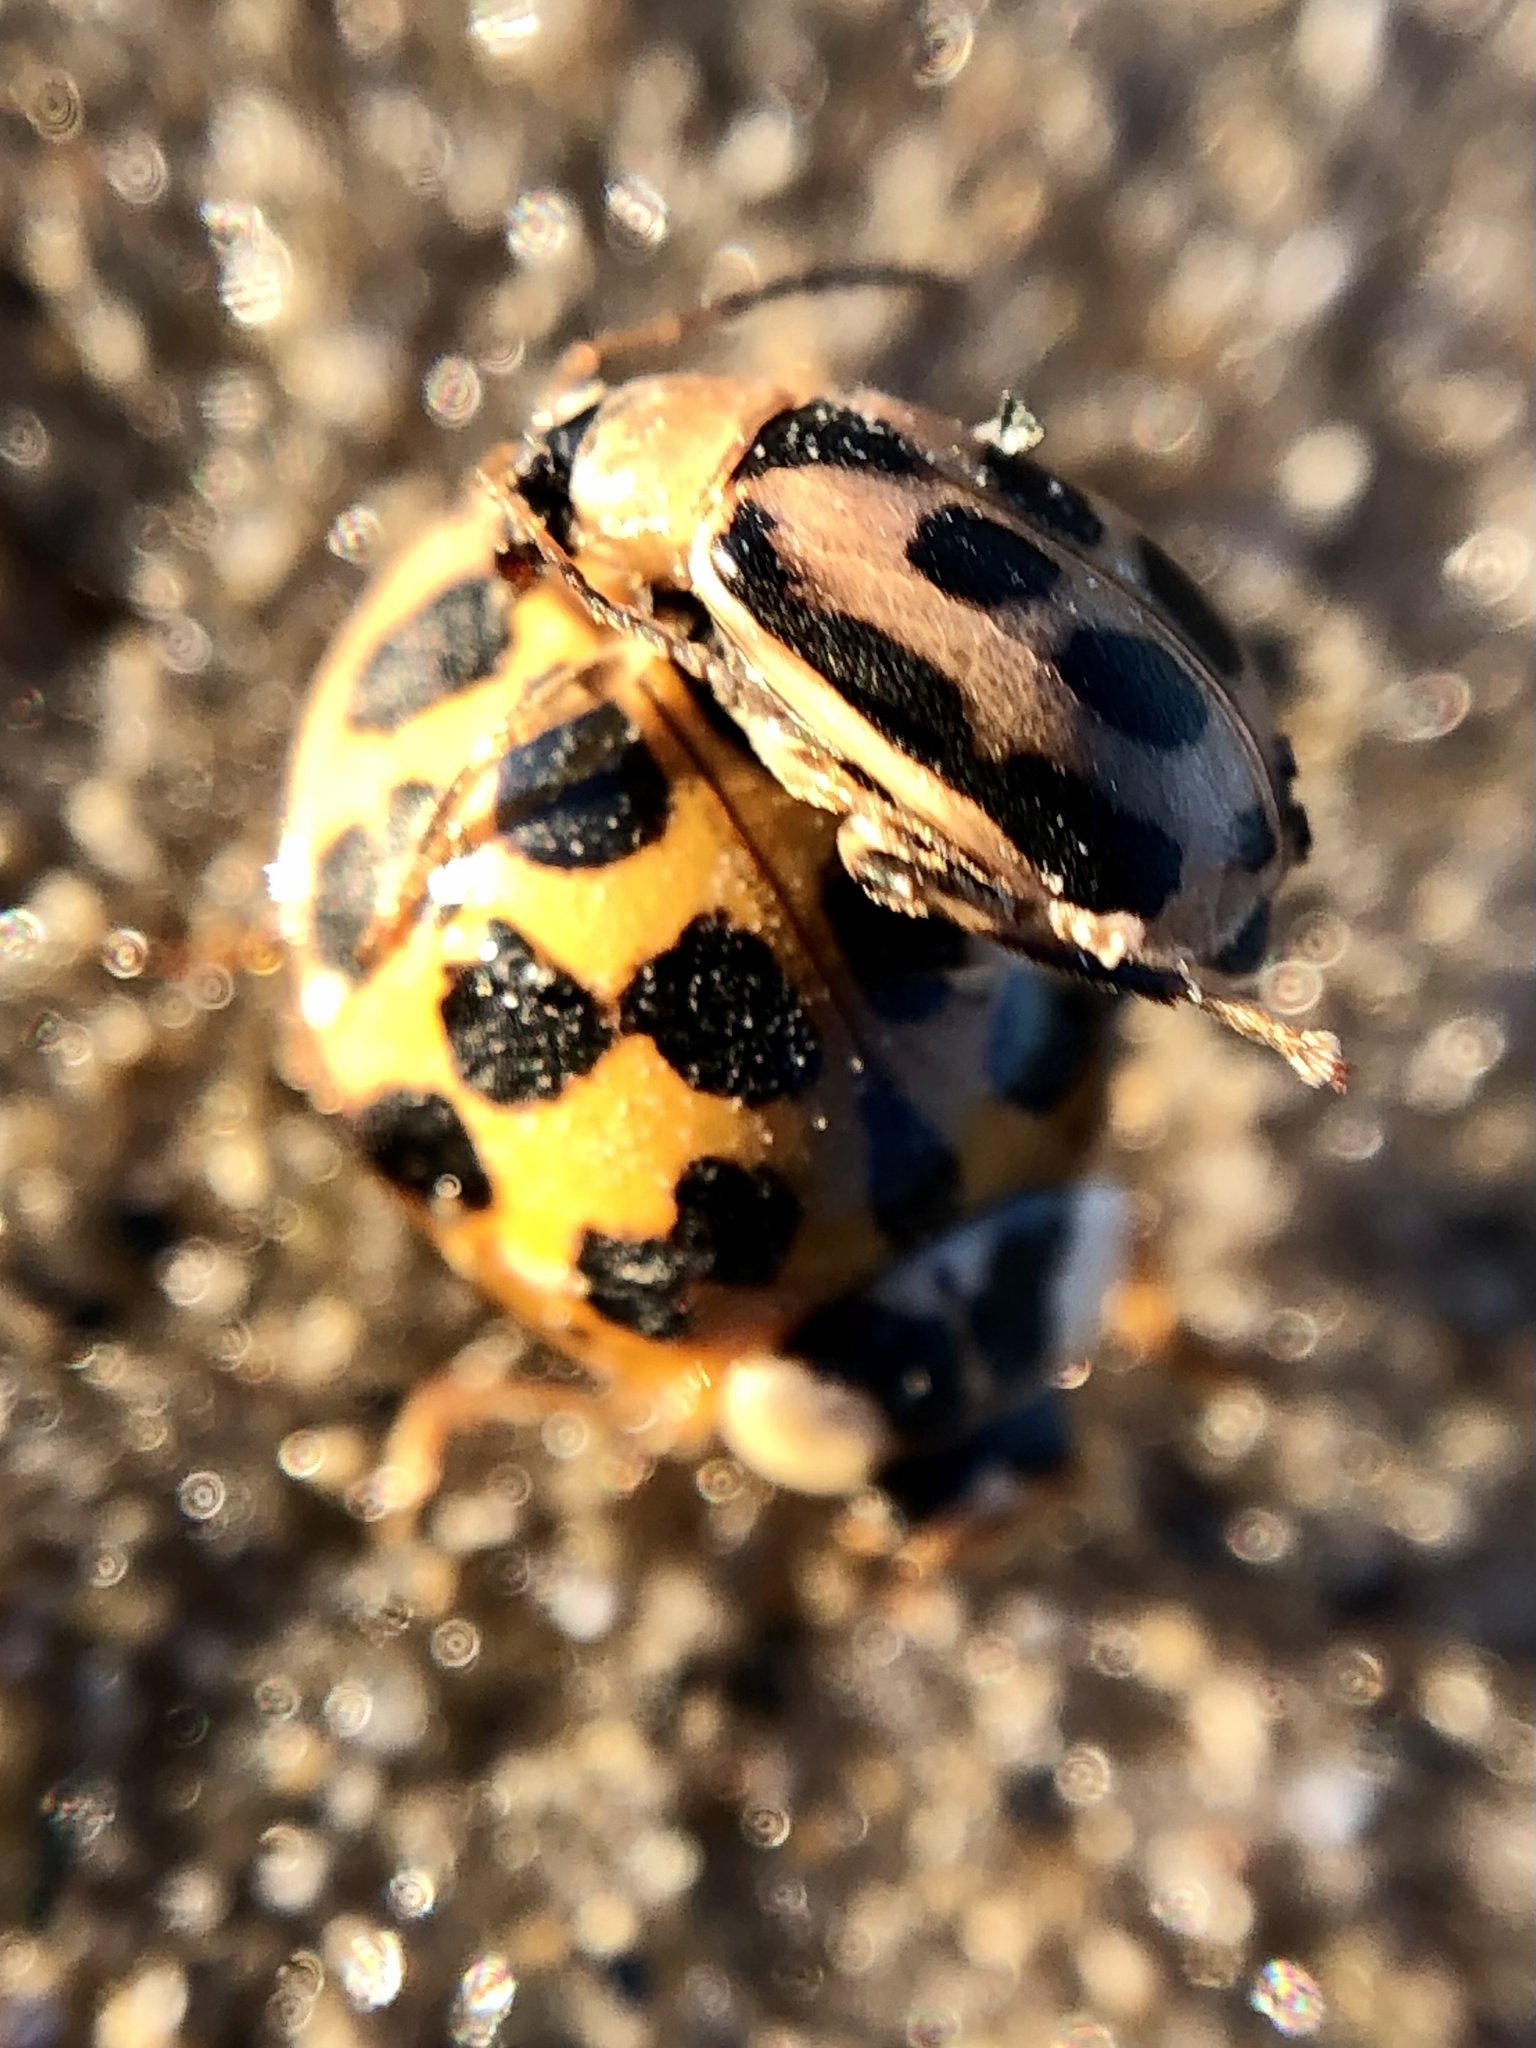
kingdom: Animalia
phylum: Arthropoda
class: Insecta
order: Coleoptera
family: Coccinellidae
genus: Harmonia
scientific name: Harmonia axyridis
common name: Harlequin ladybird
